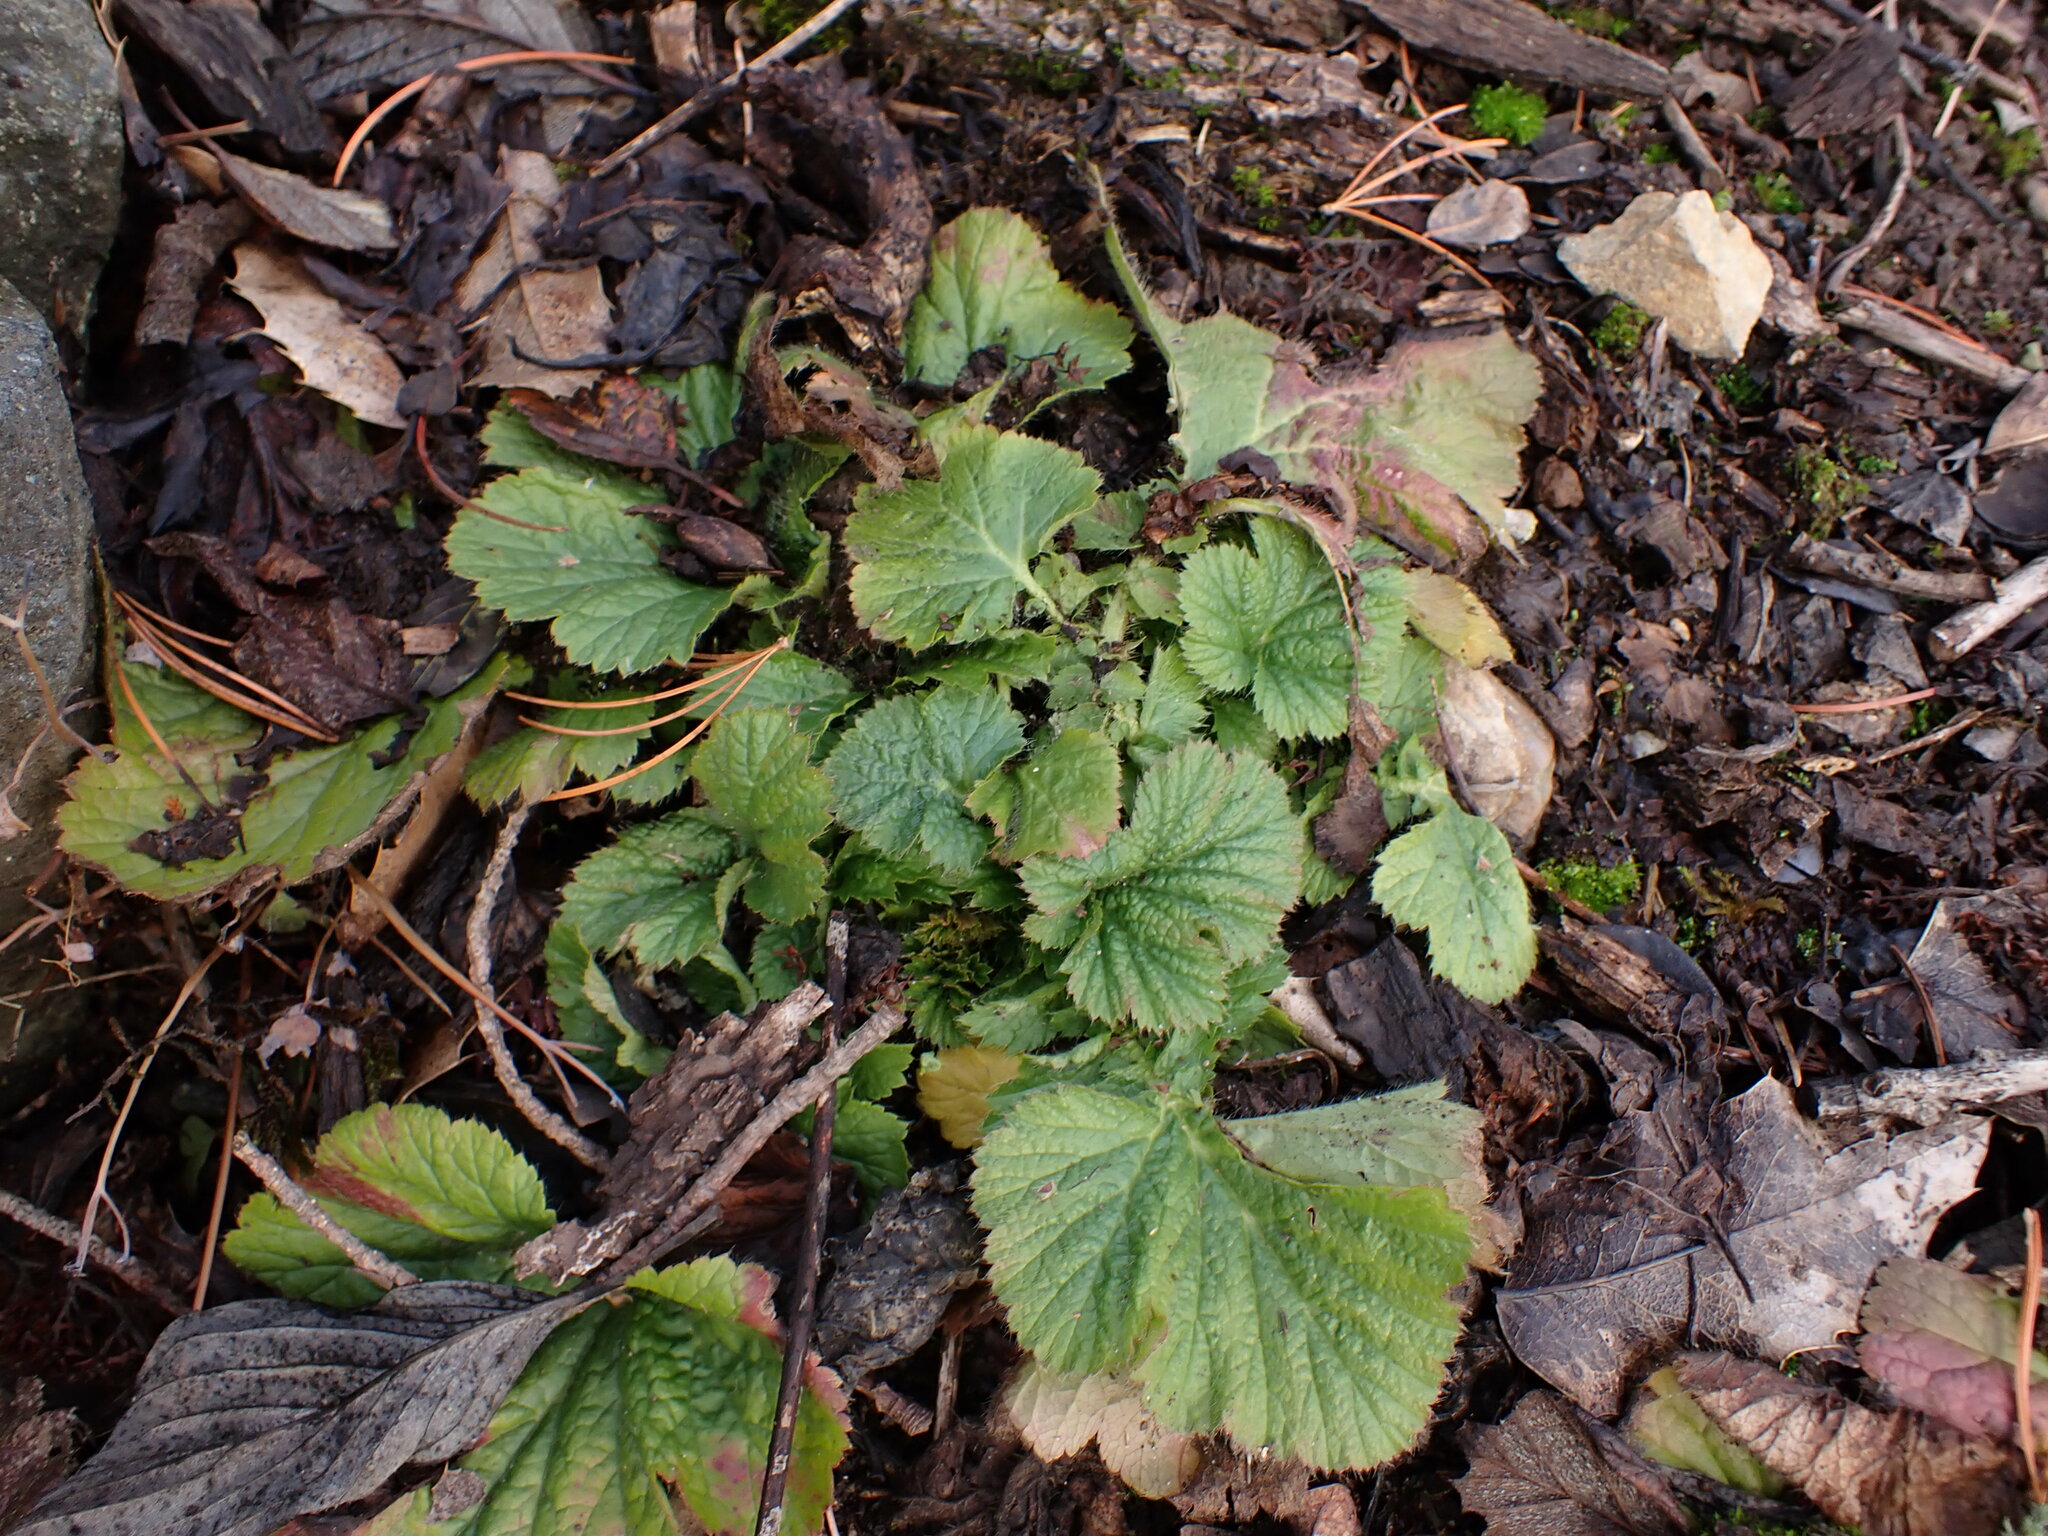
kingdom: Plantae
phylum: Tracheophyta
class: Magnoliopsida
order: Rosales
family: Rosaceae
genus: Geum
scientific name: Geum macrophyllum
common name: Large-leaved avens
